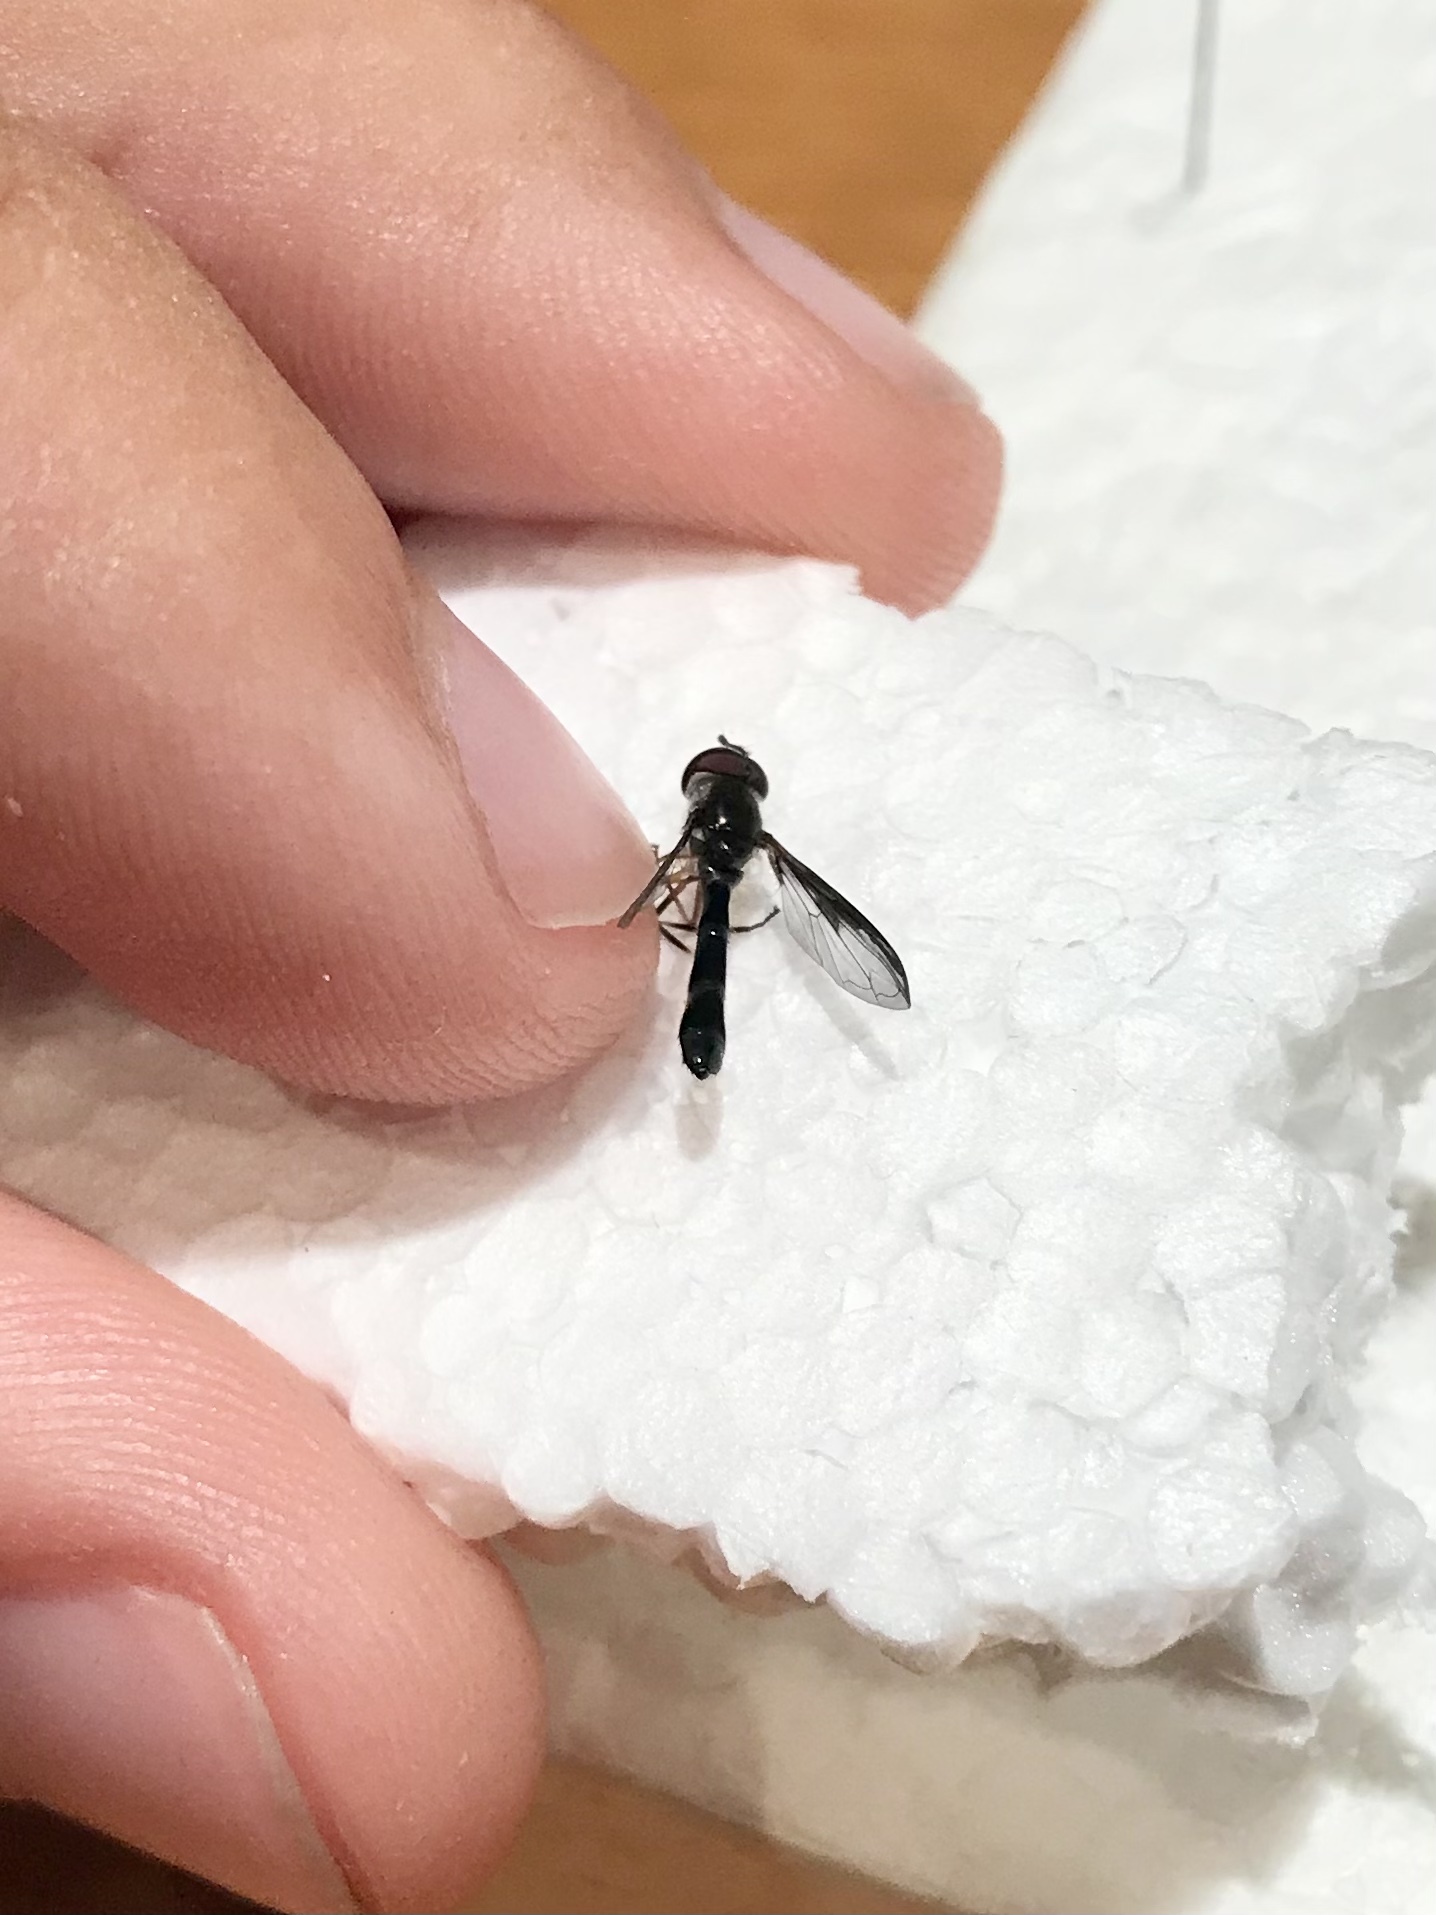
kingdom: Animalia
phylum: Arthropoda
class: Insecta
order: Diptera
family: Syrphidae
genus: Ocyptamus
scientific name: Ocyptamus costatus
